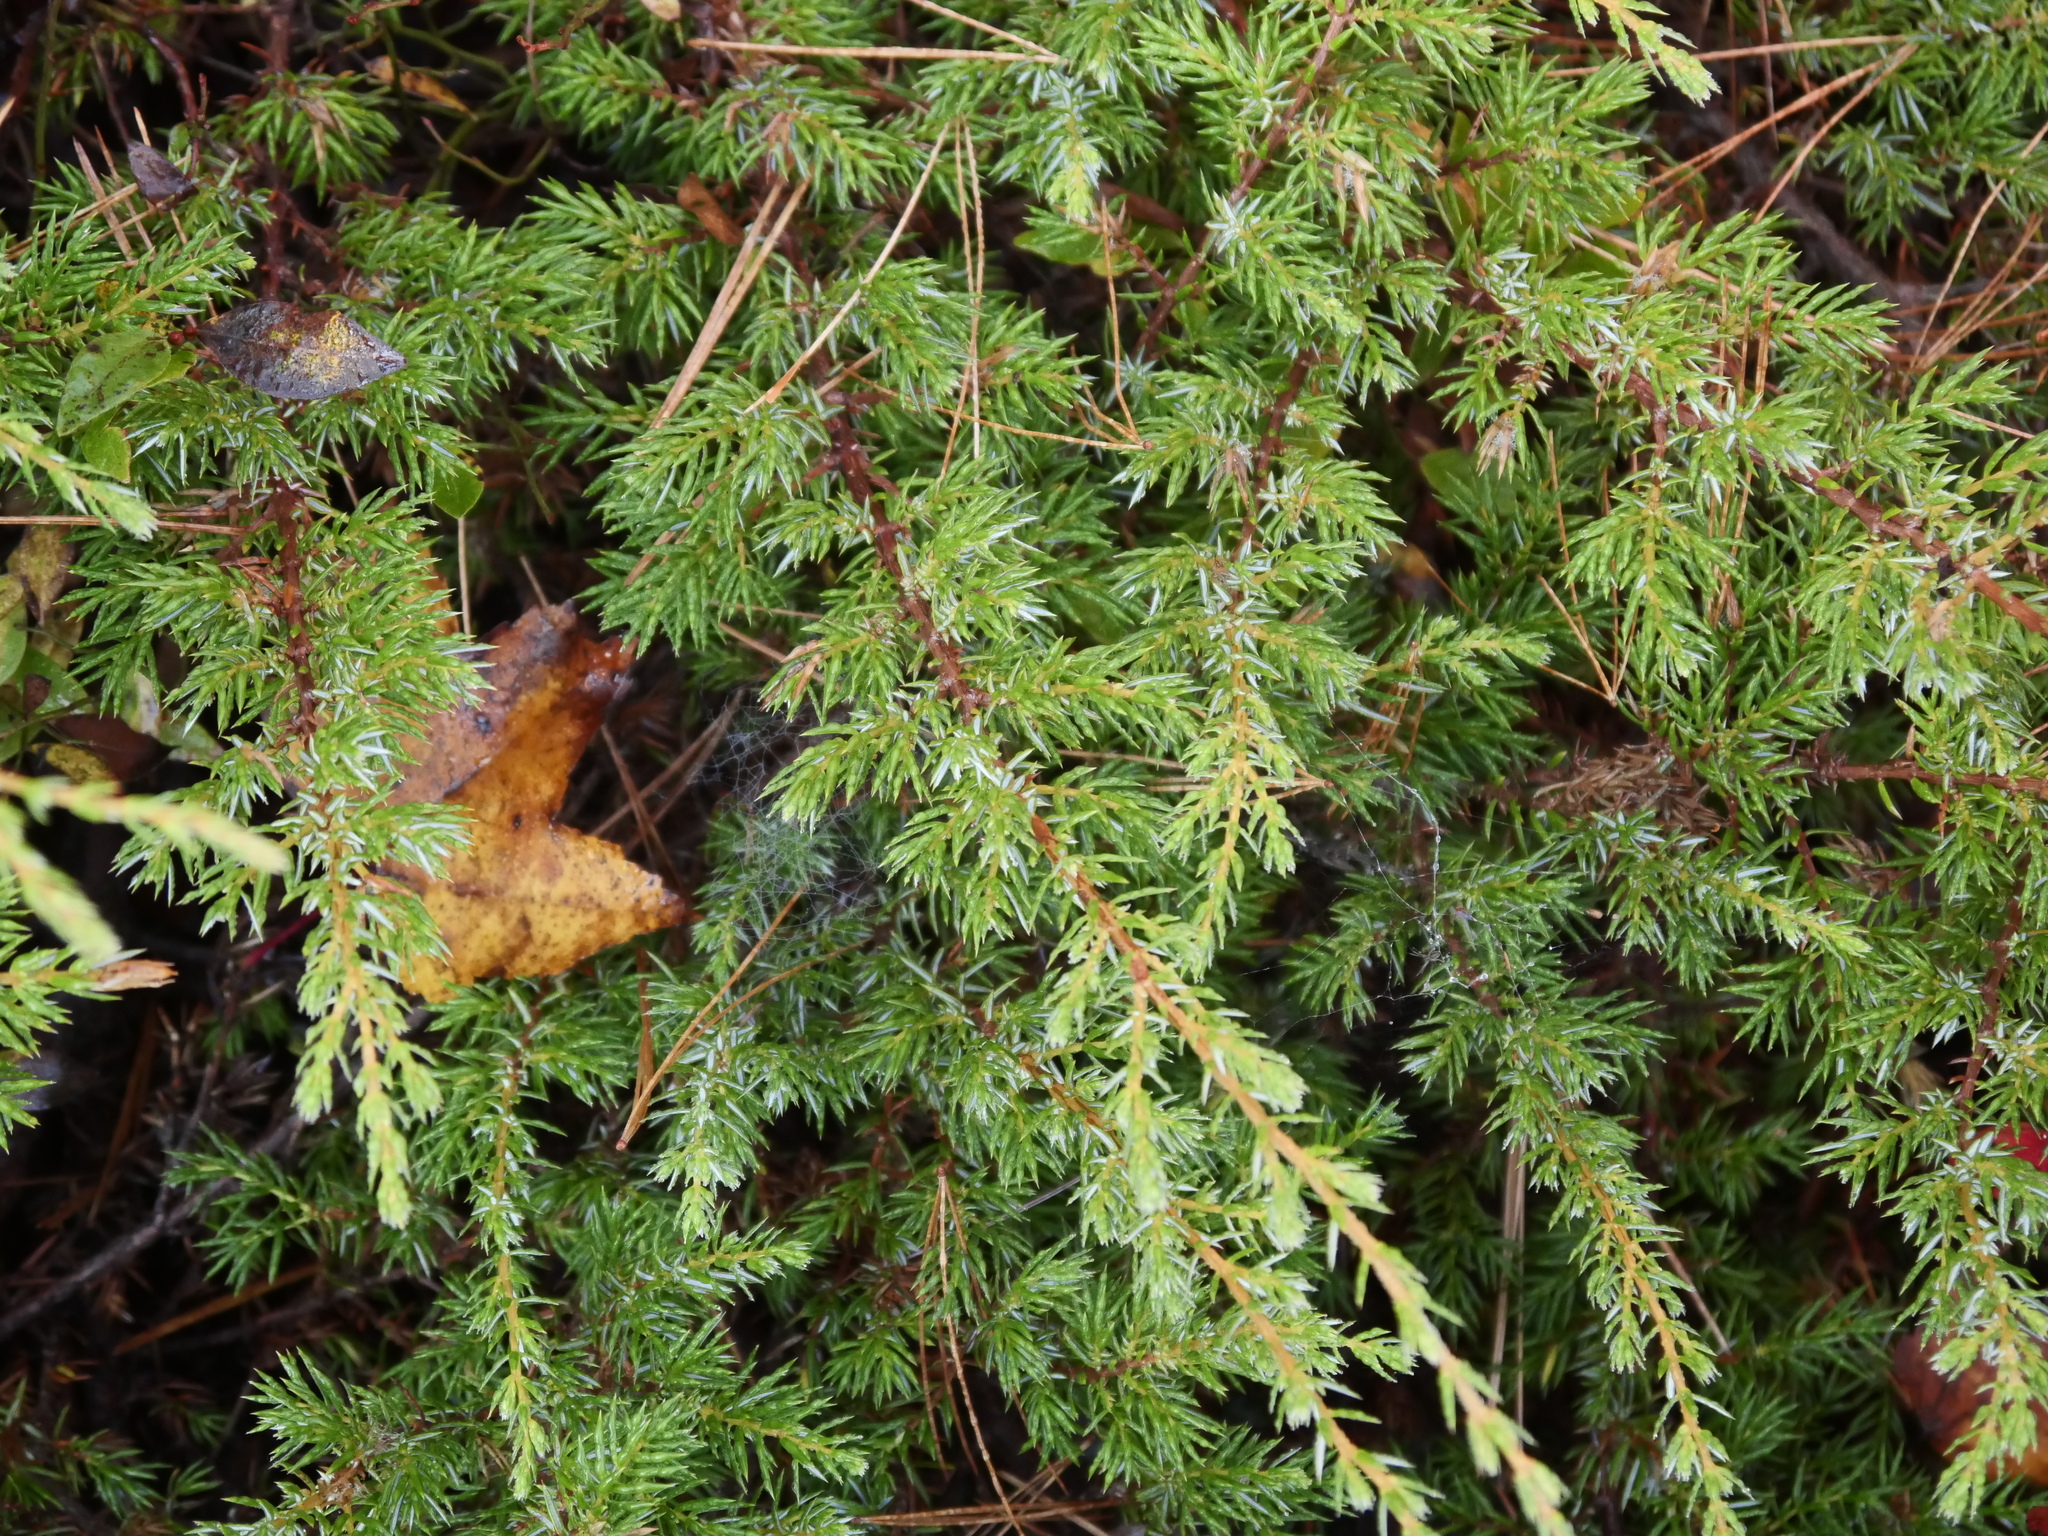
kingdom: Plantae
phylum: Tracheophyta
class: Pinopsida
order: Pinales
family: Cupressaceae
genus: Juniperus
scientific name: Juniperus communis
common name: Common juniper
